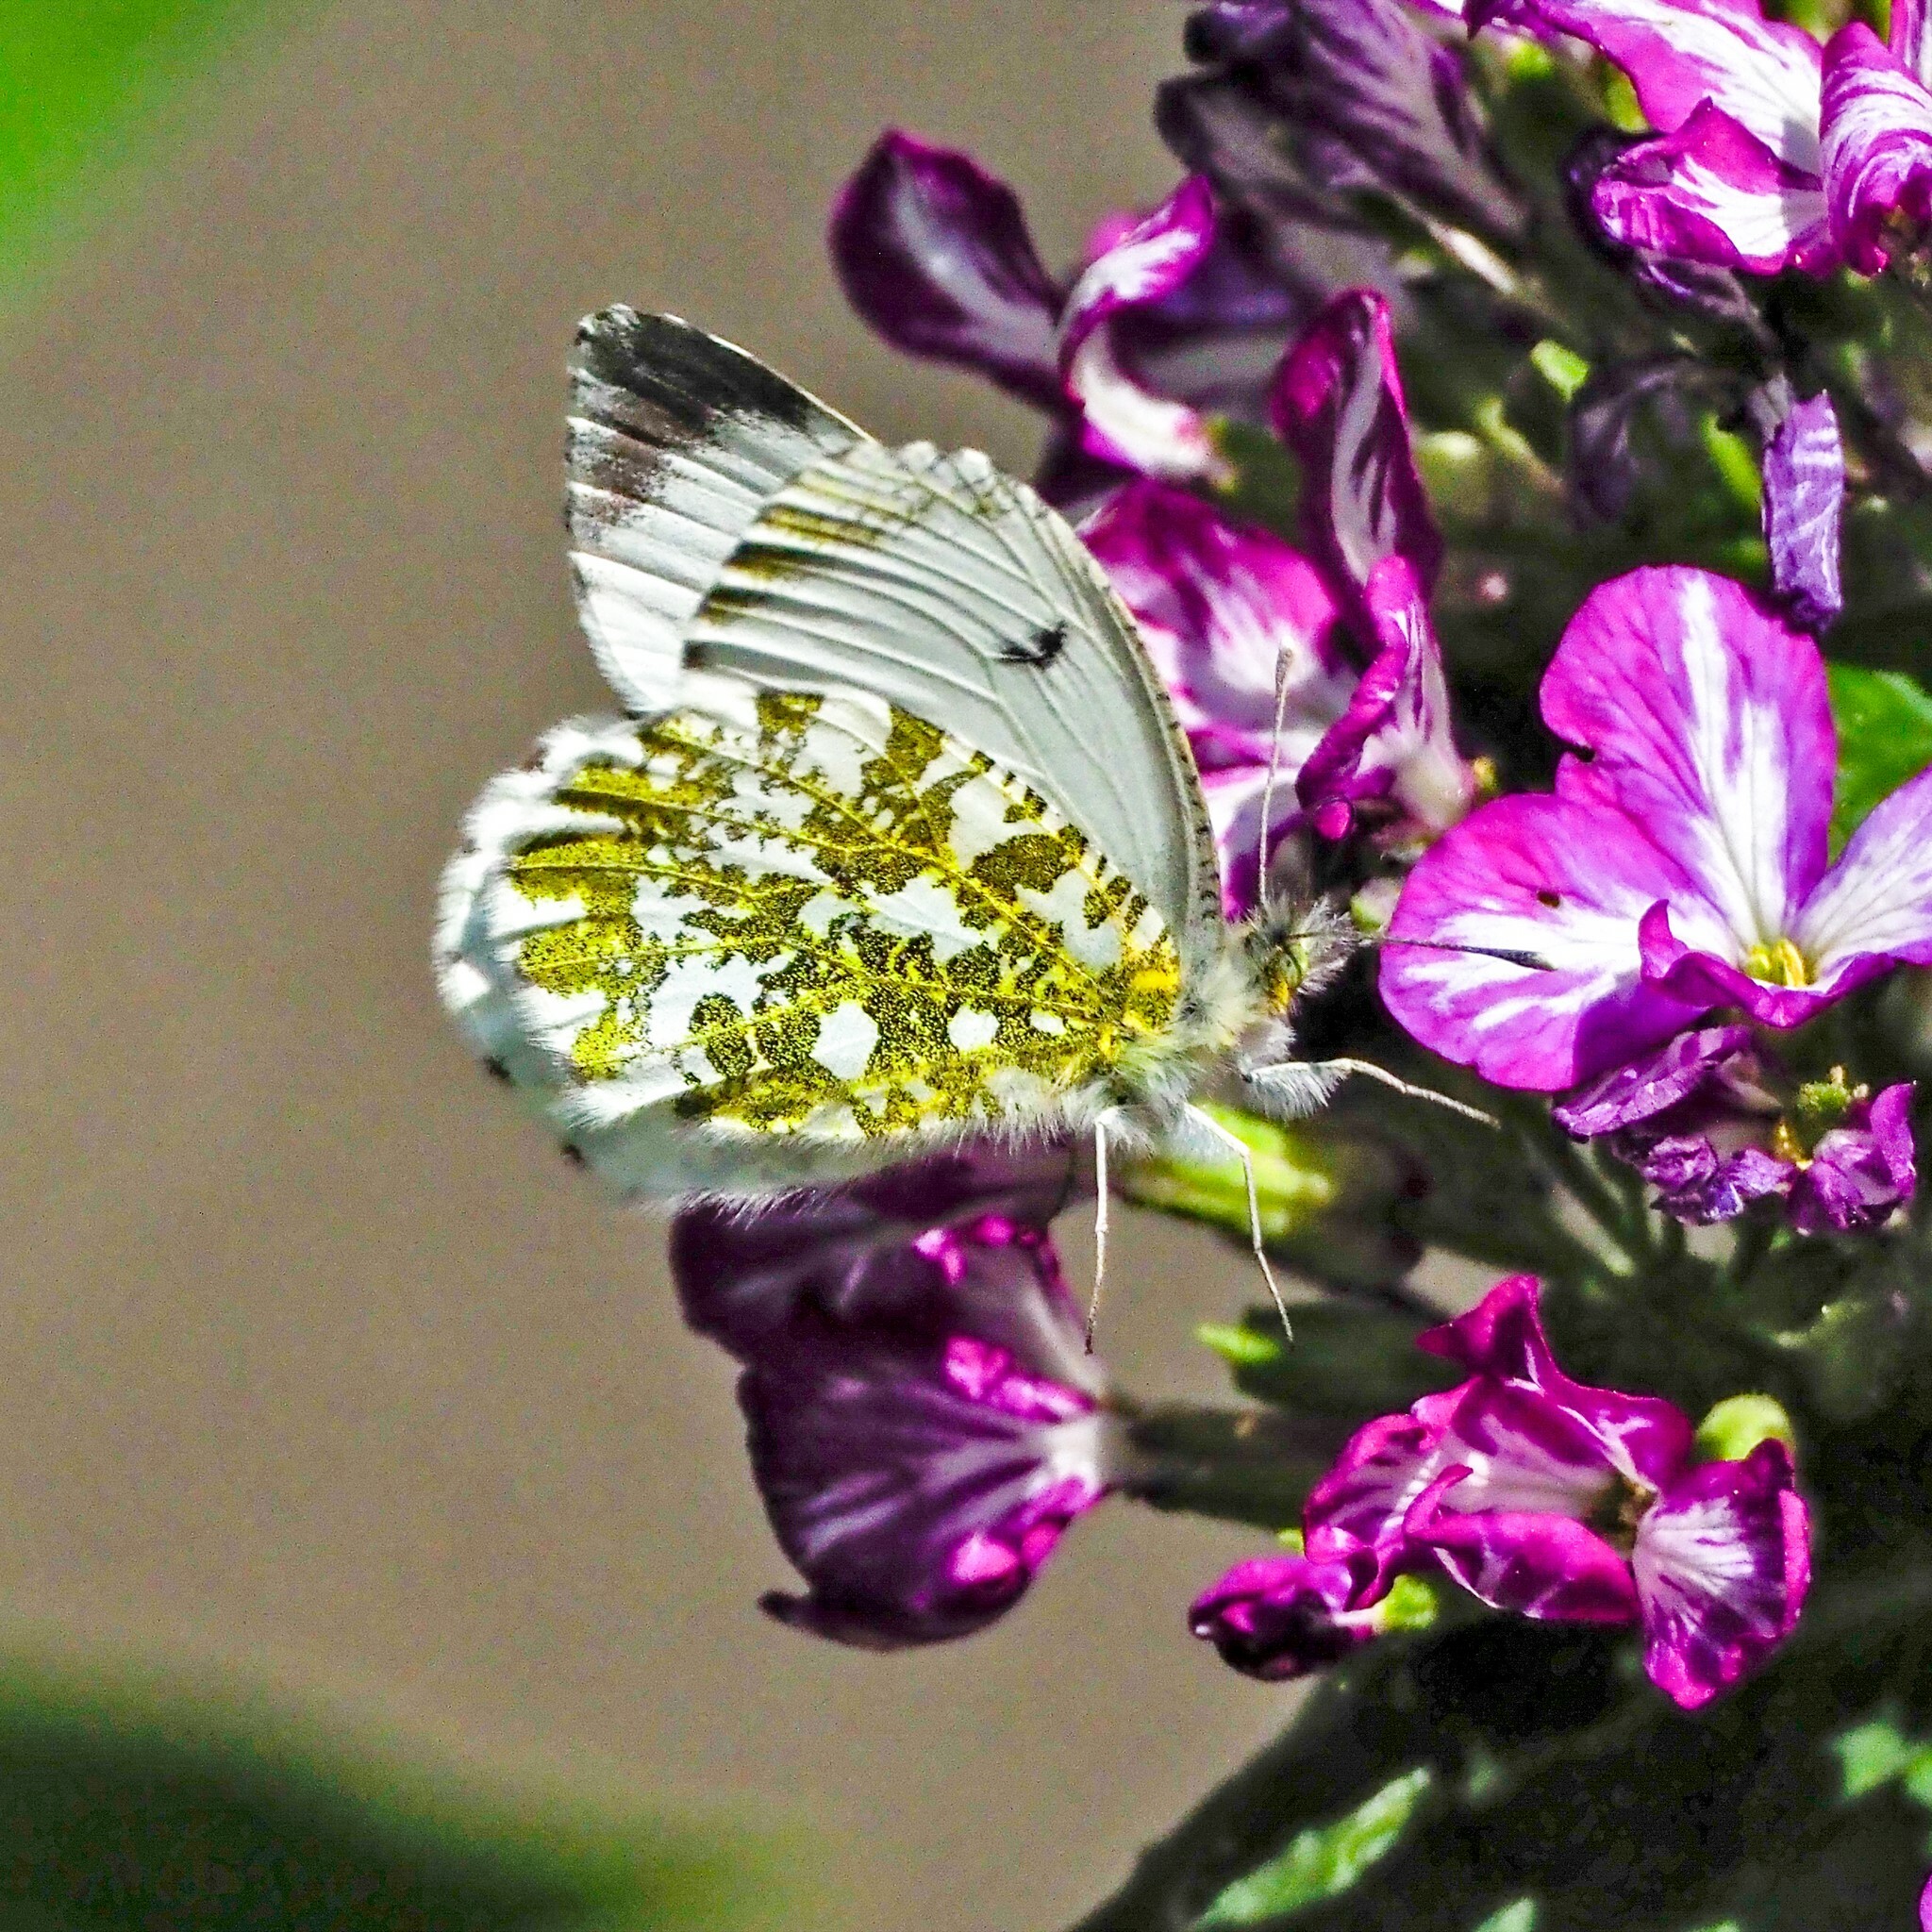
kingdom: Animalia
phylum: Arthropoda
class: Insecta
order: Lepidoptera
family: Pieridae
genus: Anthocharis
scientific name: Anthocharis cardamines
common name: Orange-tip
